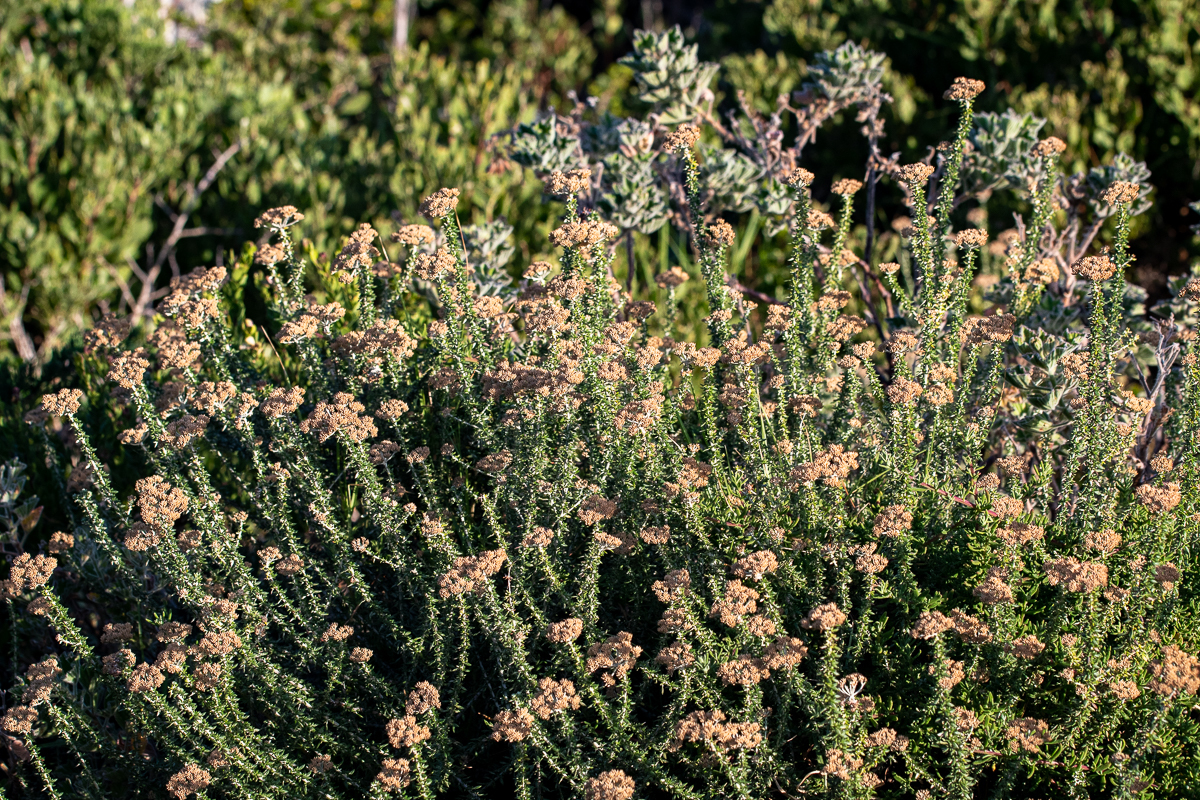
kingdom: Plantae
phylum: Tracheophyta
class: Magnoliopsida
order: Asterales
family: Asteraceae
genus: Metalasia
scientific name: Metalasia muricata
